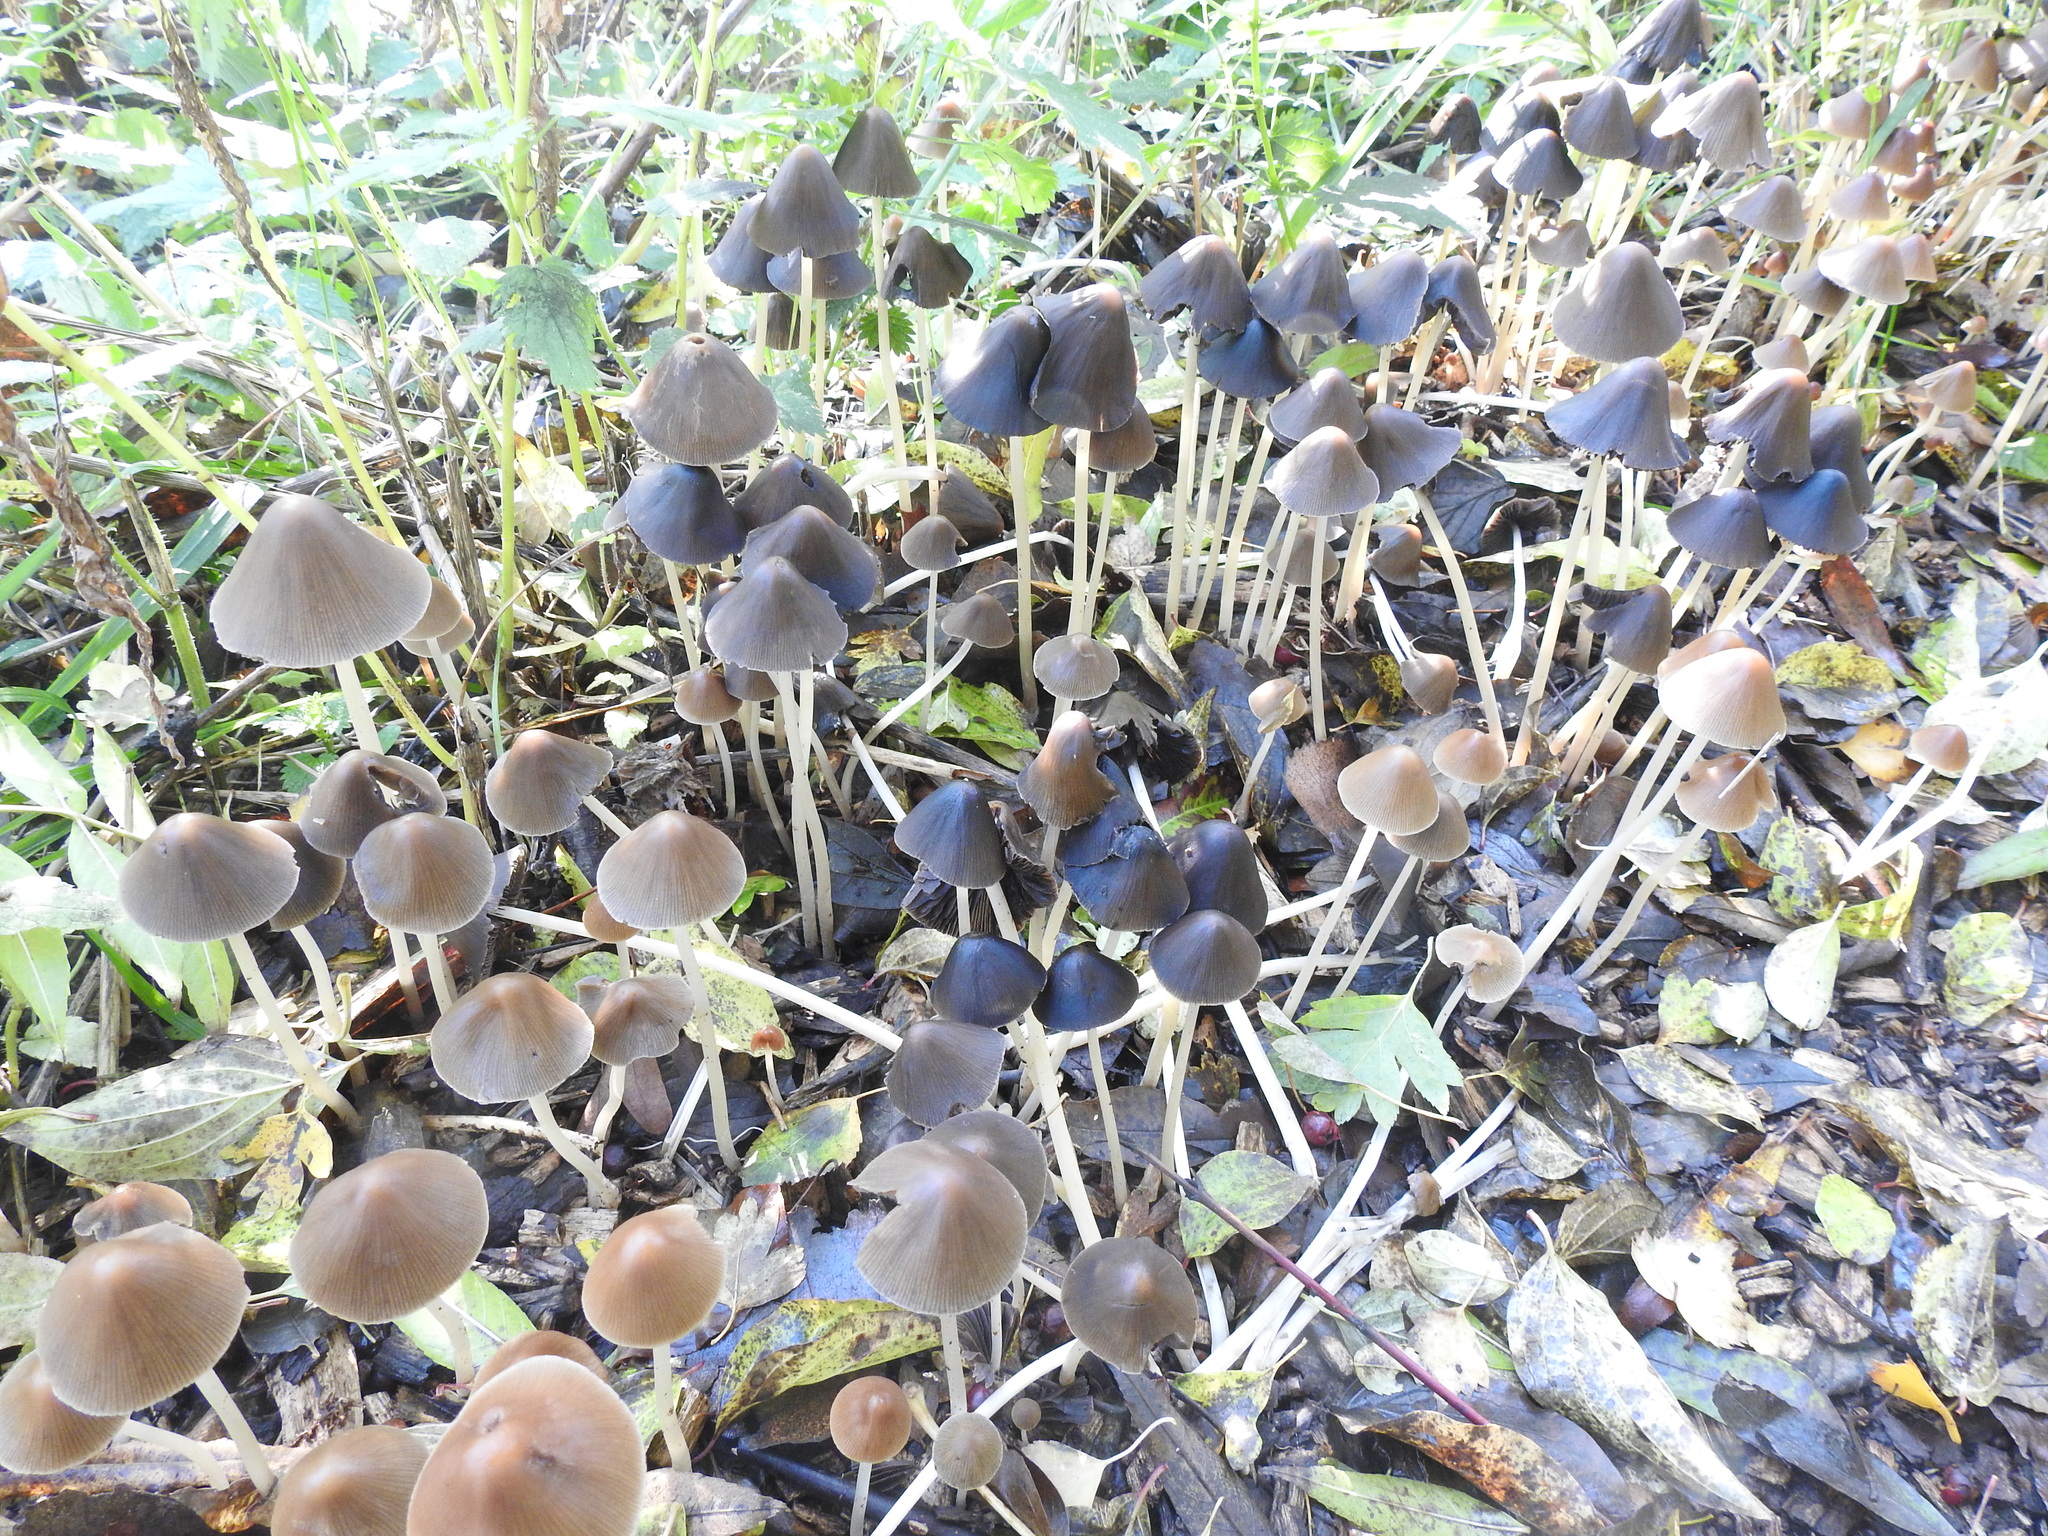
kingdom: Fungi
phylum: Basidiomycota
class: Agaricomycetes
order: Agaricales
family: Psathyrellaceae
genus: Parasola
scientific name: Parasola conopilea
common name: Conical brittlestem
